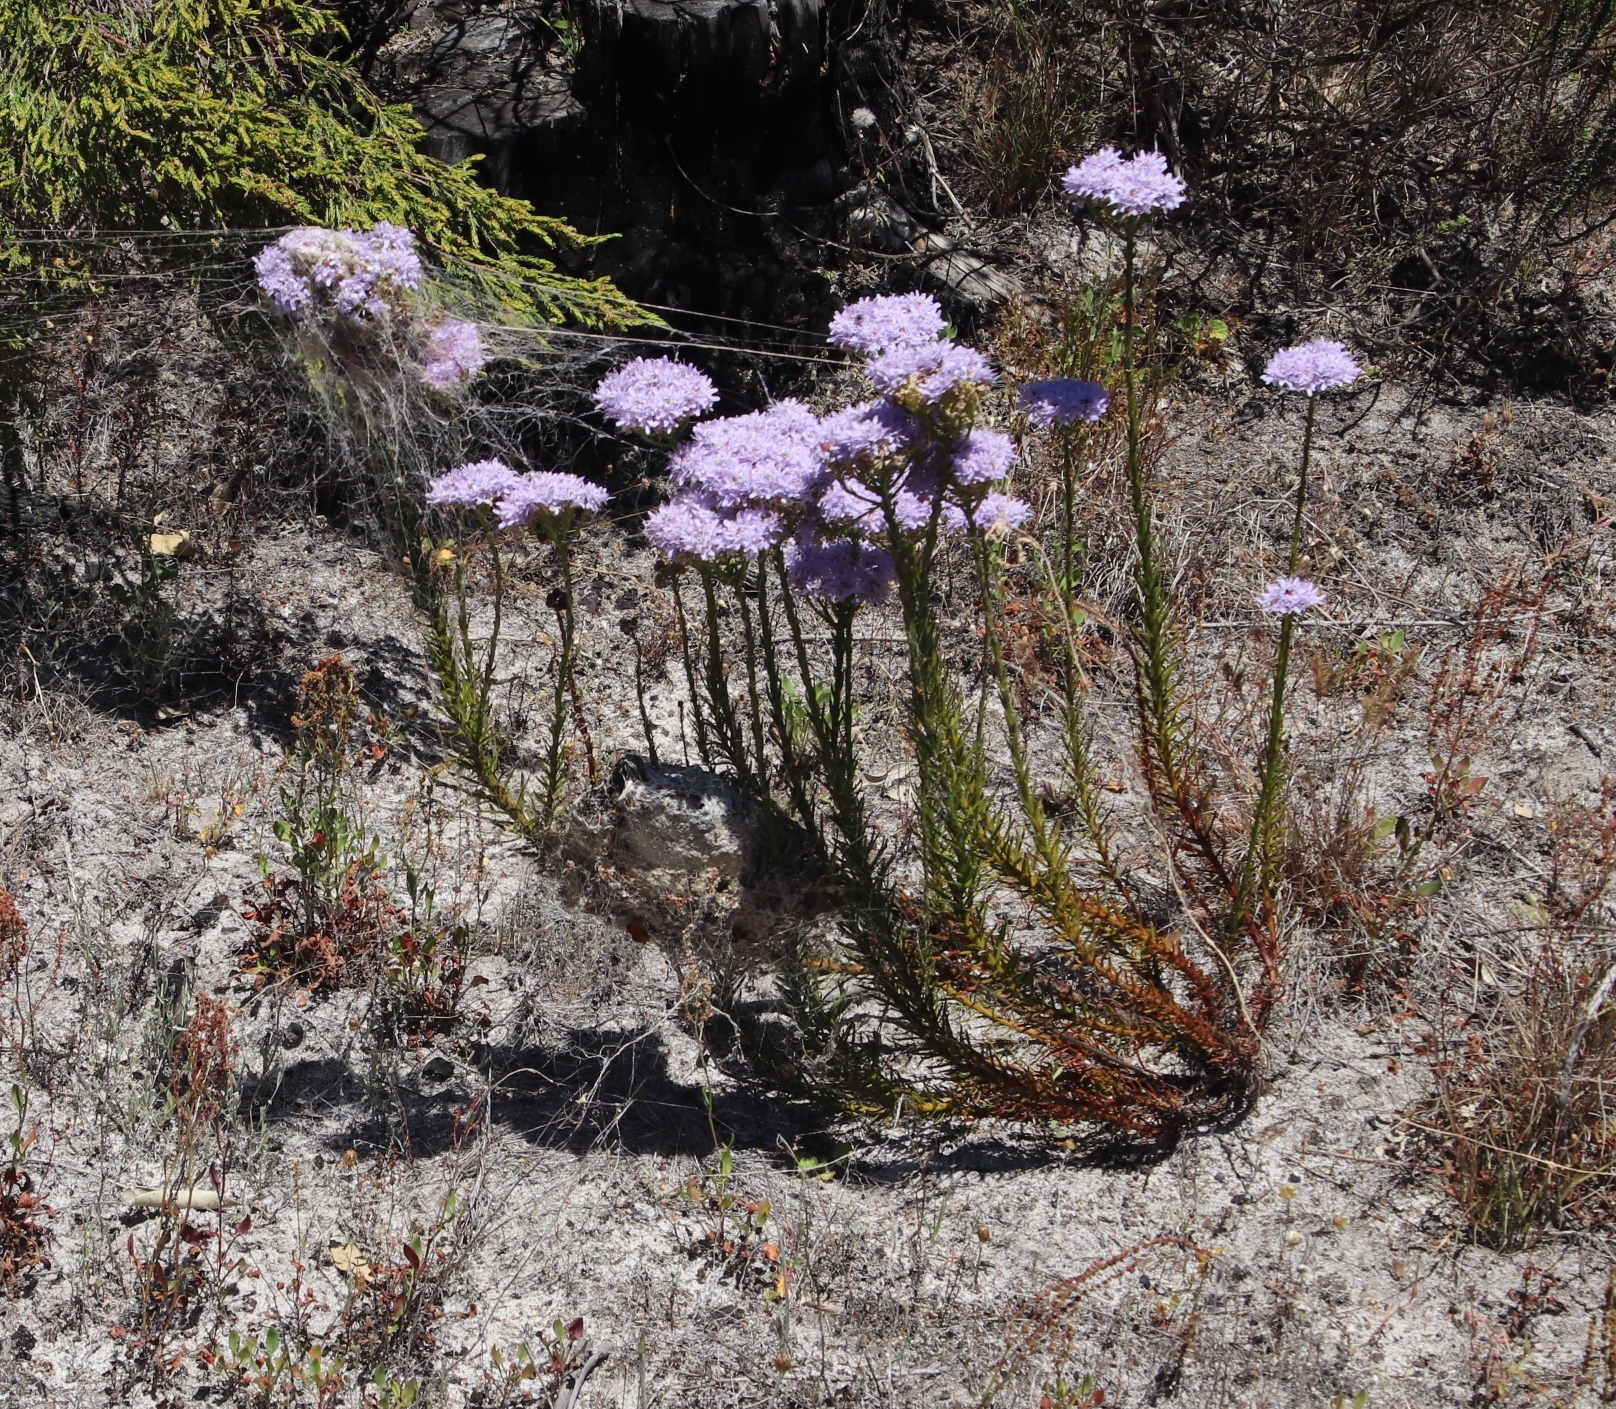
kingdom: Plantae
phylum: Tracheophyta
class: Magnoliopsida
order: Lamiales
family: Scrophulariaceae
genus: Pseudoselago
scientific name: Pseudoselago spuria
